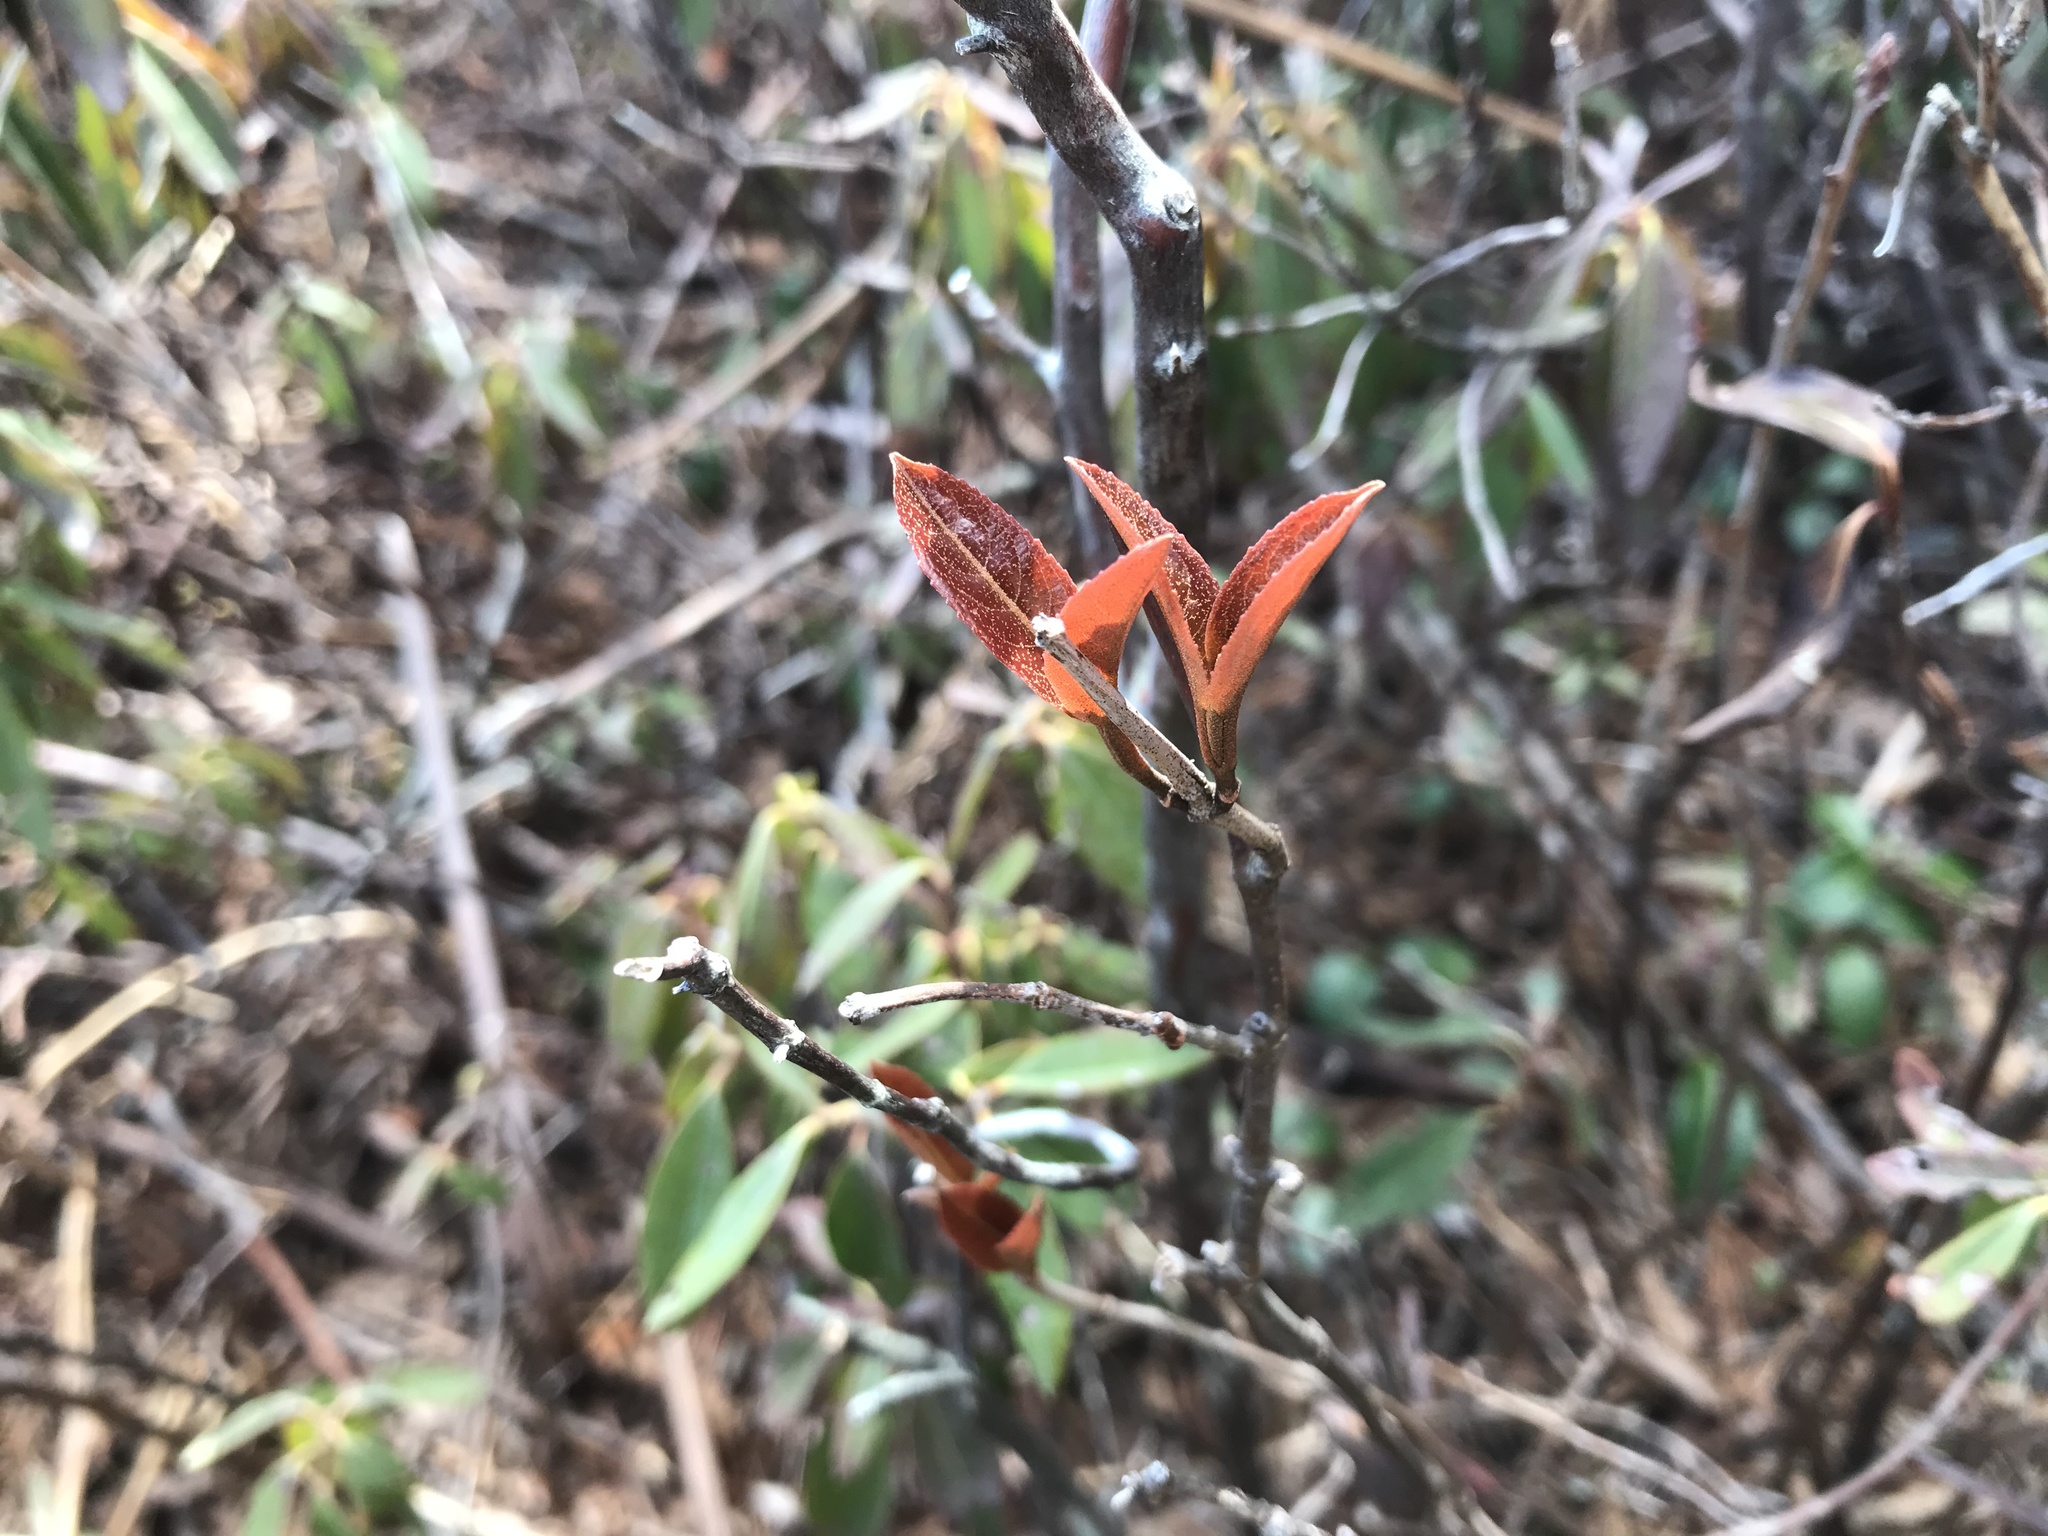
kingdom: Plantae
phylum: Tracheophyta
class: Magnoliopsida
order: Dipsacales
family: Viburnaceae
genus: Viburnum
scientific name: Viburnum cassinoides
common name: Swamp haw
